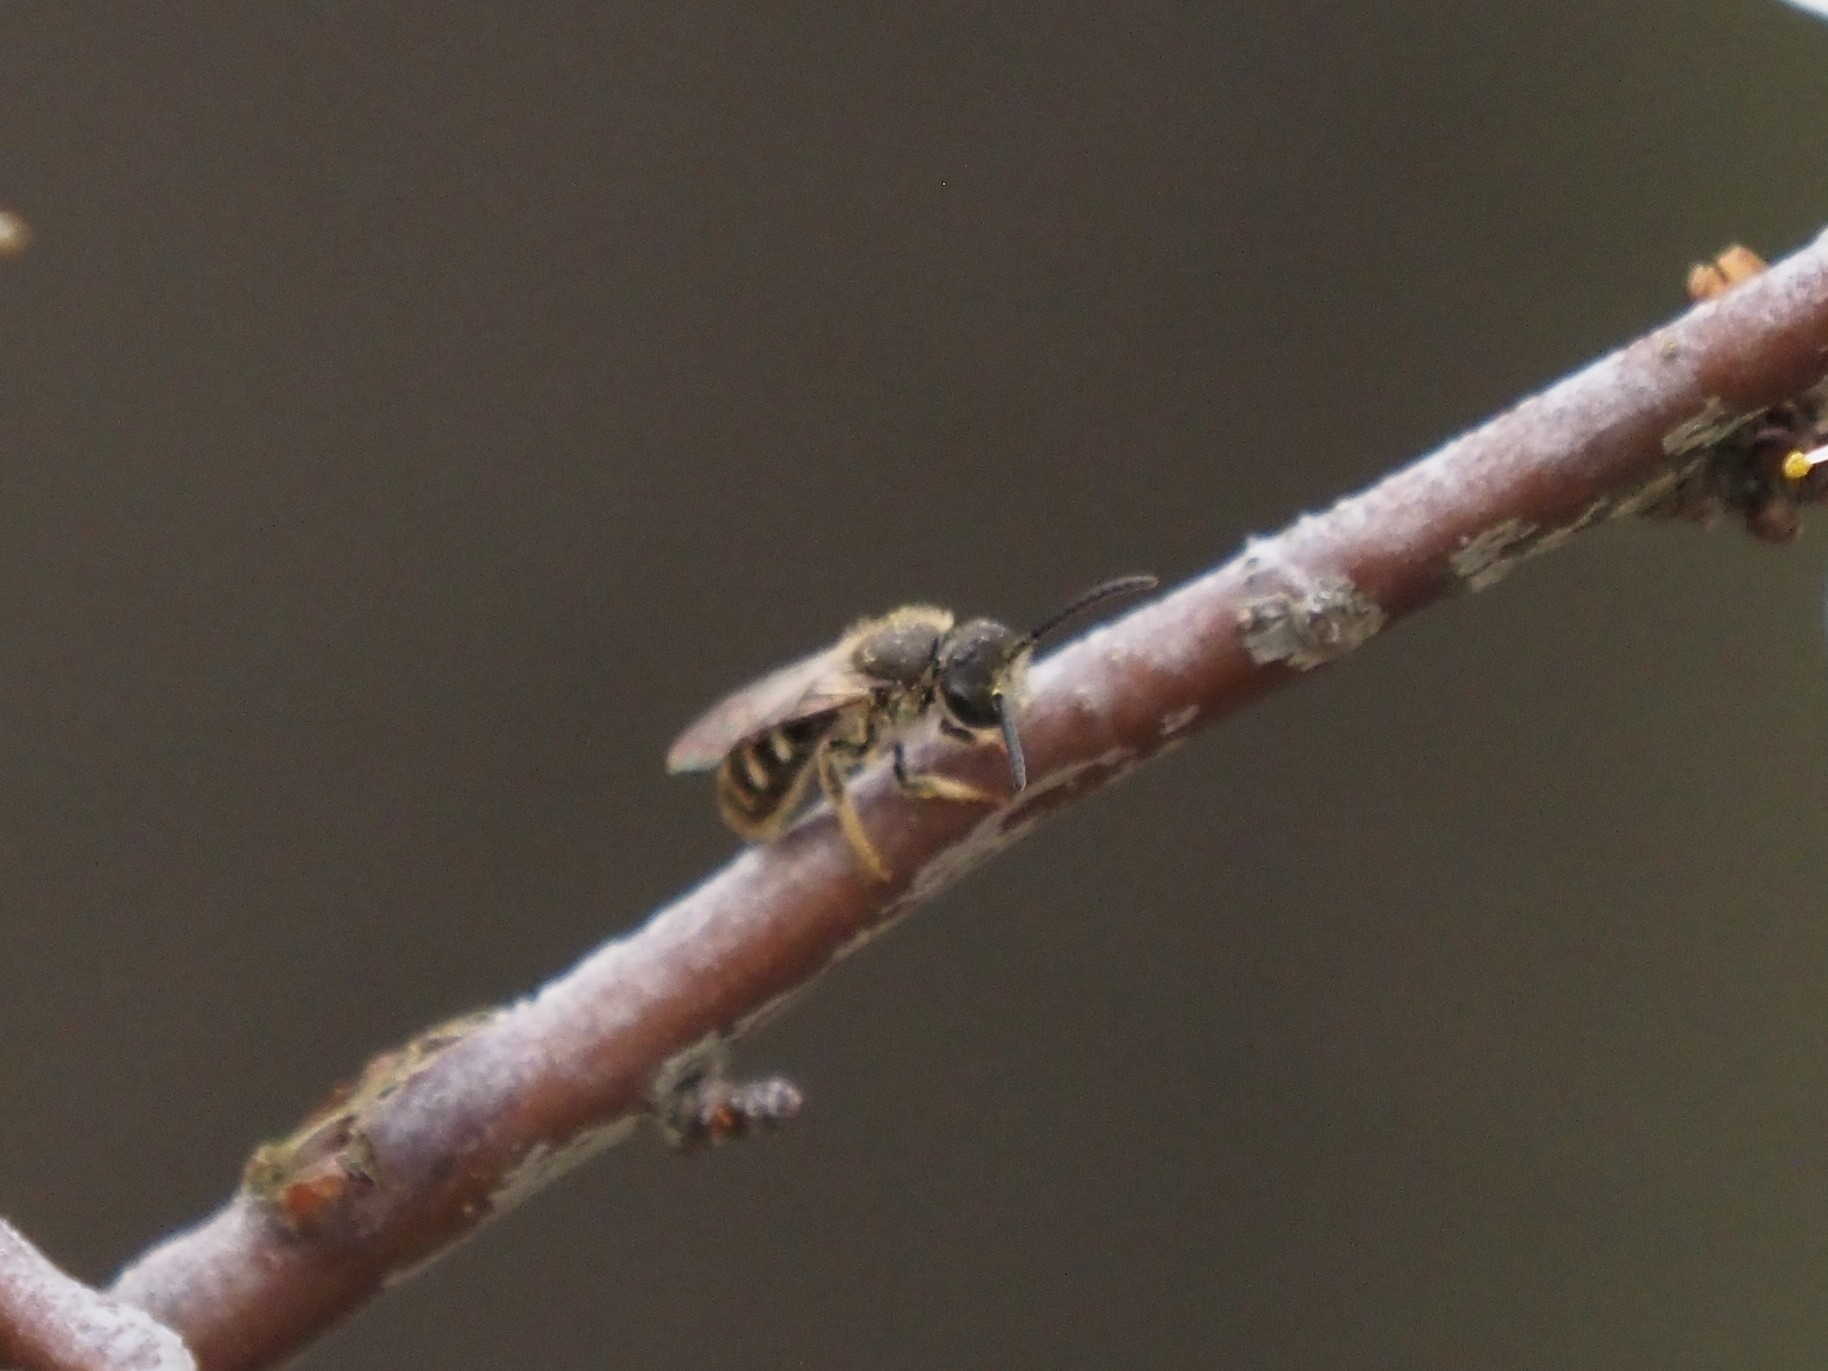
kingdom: Animalia
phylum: Arthropoda
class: Insecta
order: Hymenoptera
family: Halictidae
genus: Lasioglossum
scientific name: Lasioglossum pallens
